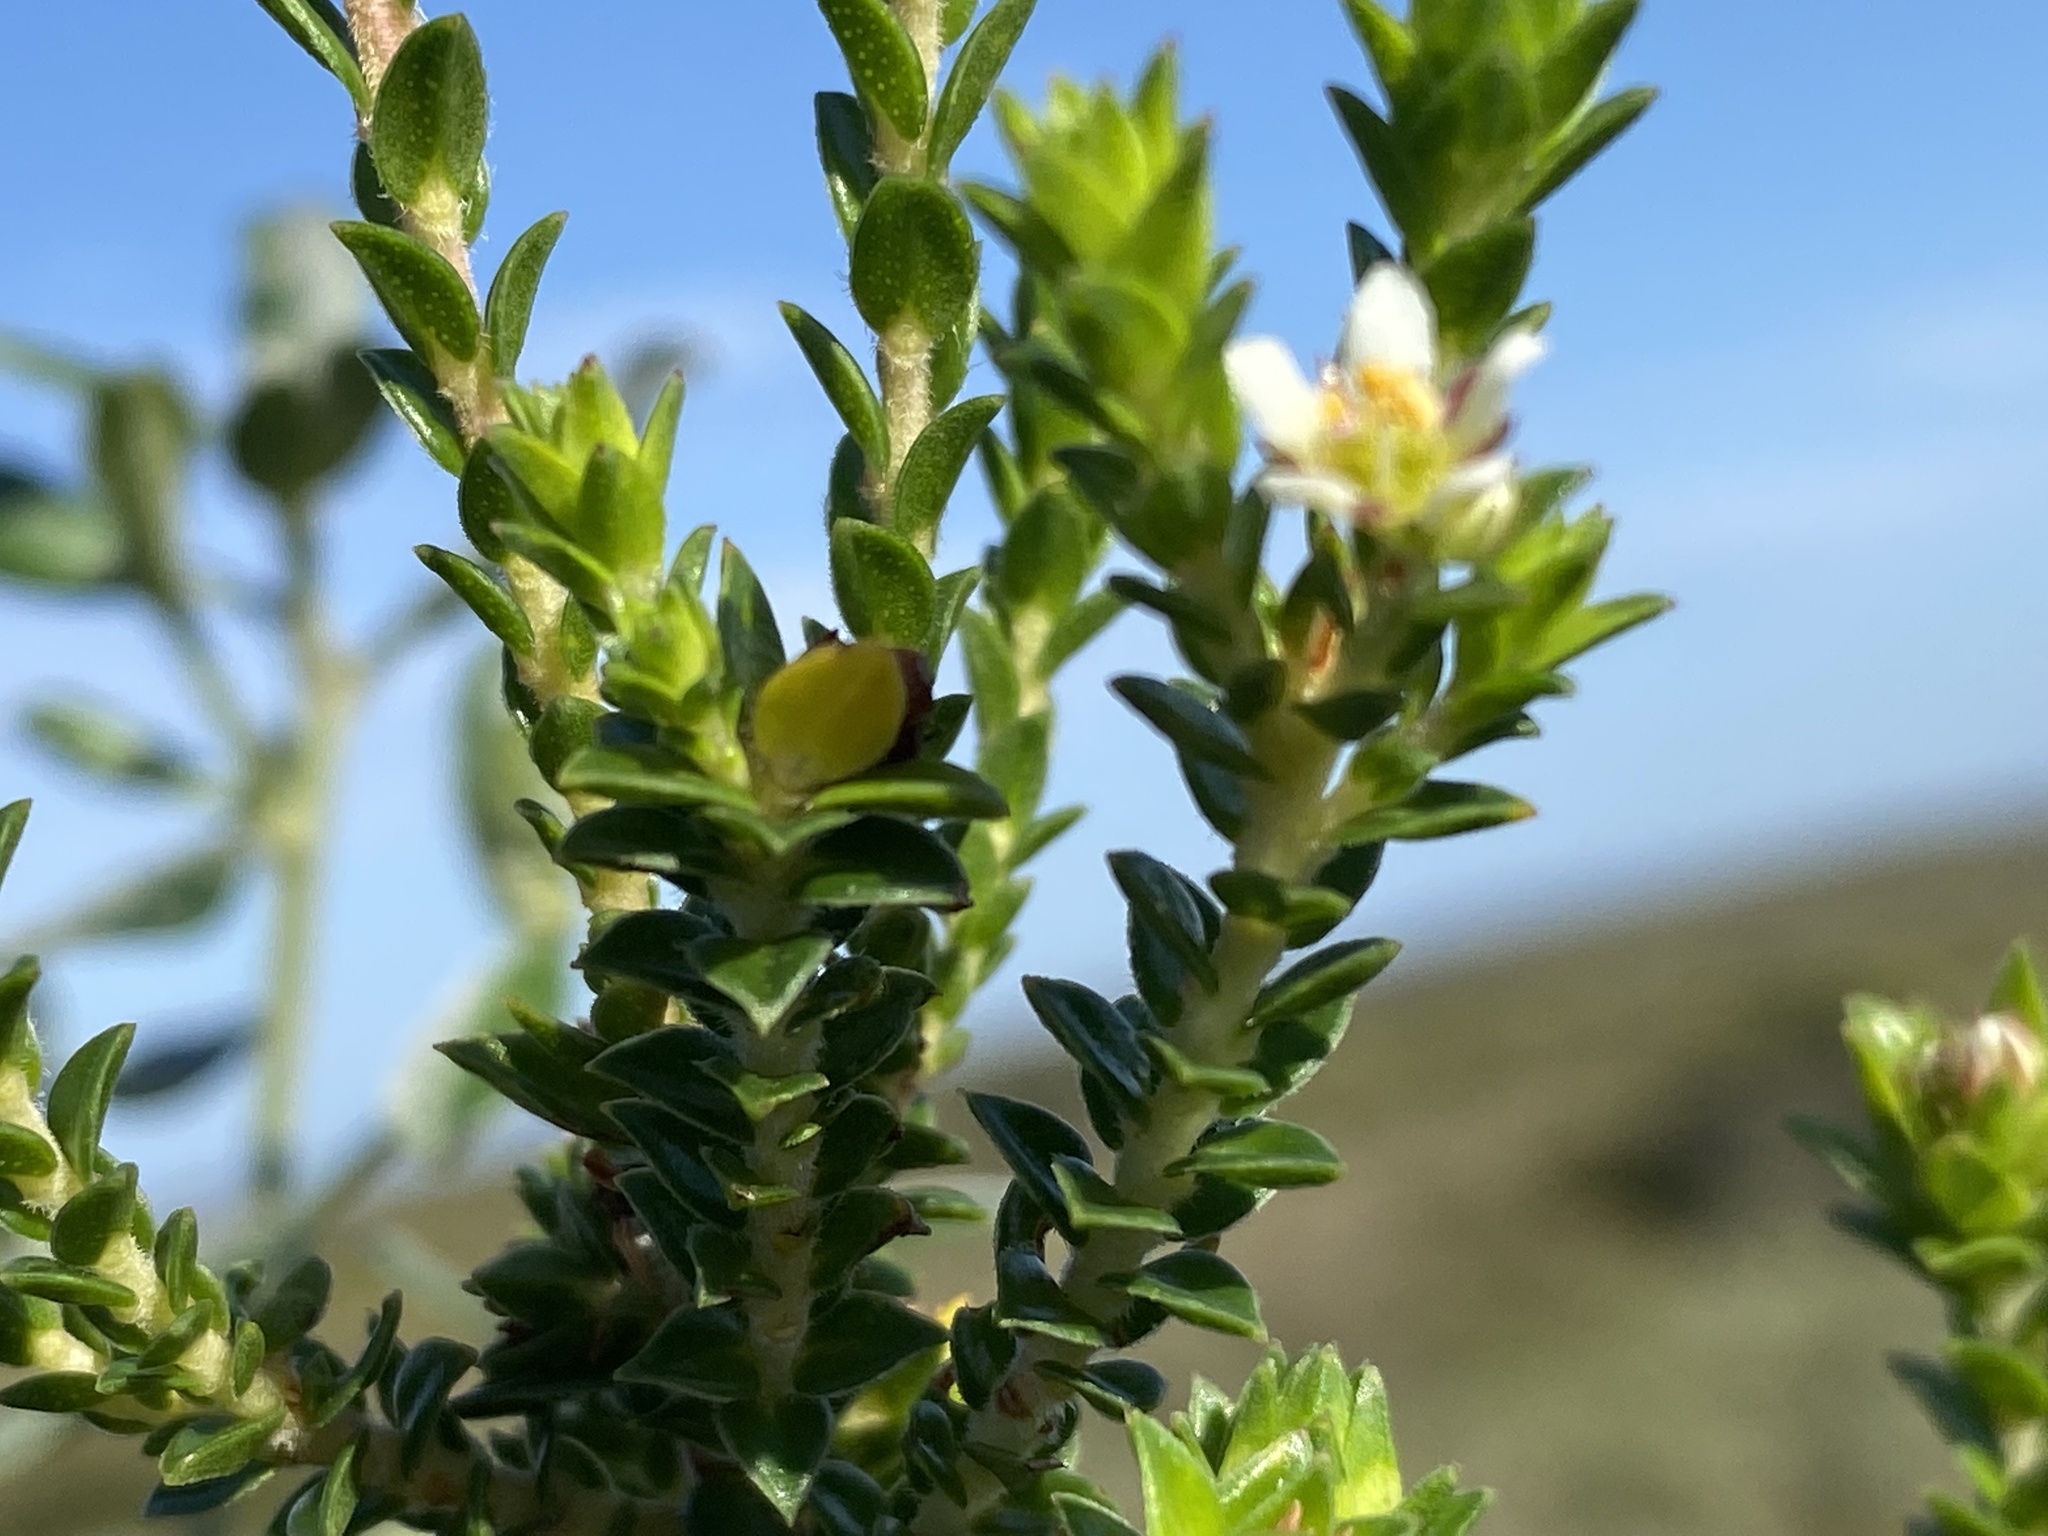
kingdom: Plantae
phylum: Tracheophyta
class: Magnoliopsida
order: Sapindales
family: Rutaceae
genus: Diosma
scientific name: Diosma echinulata
